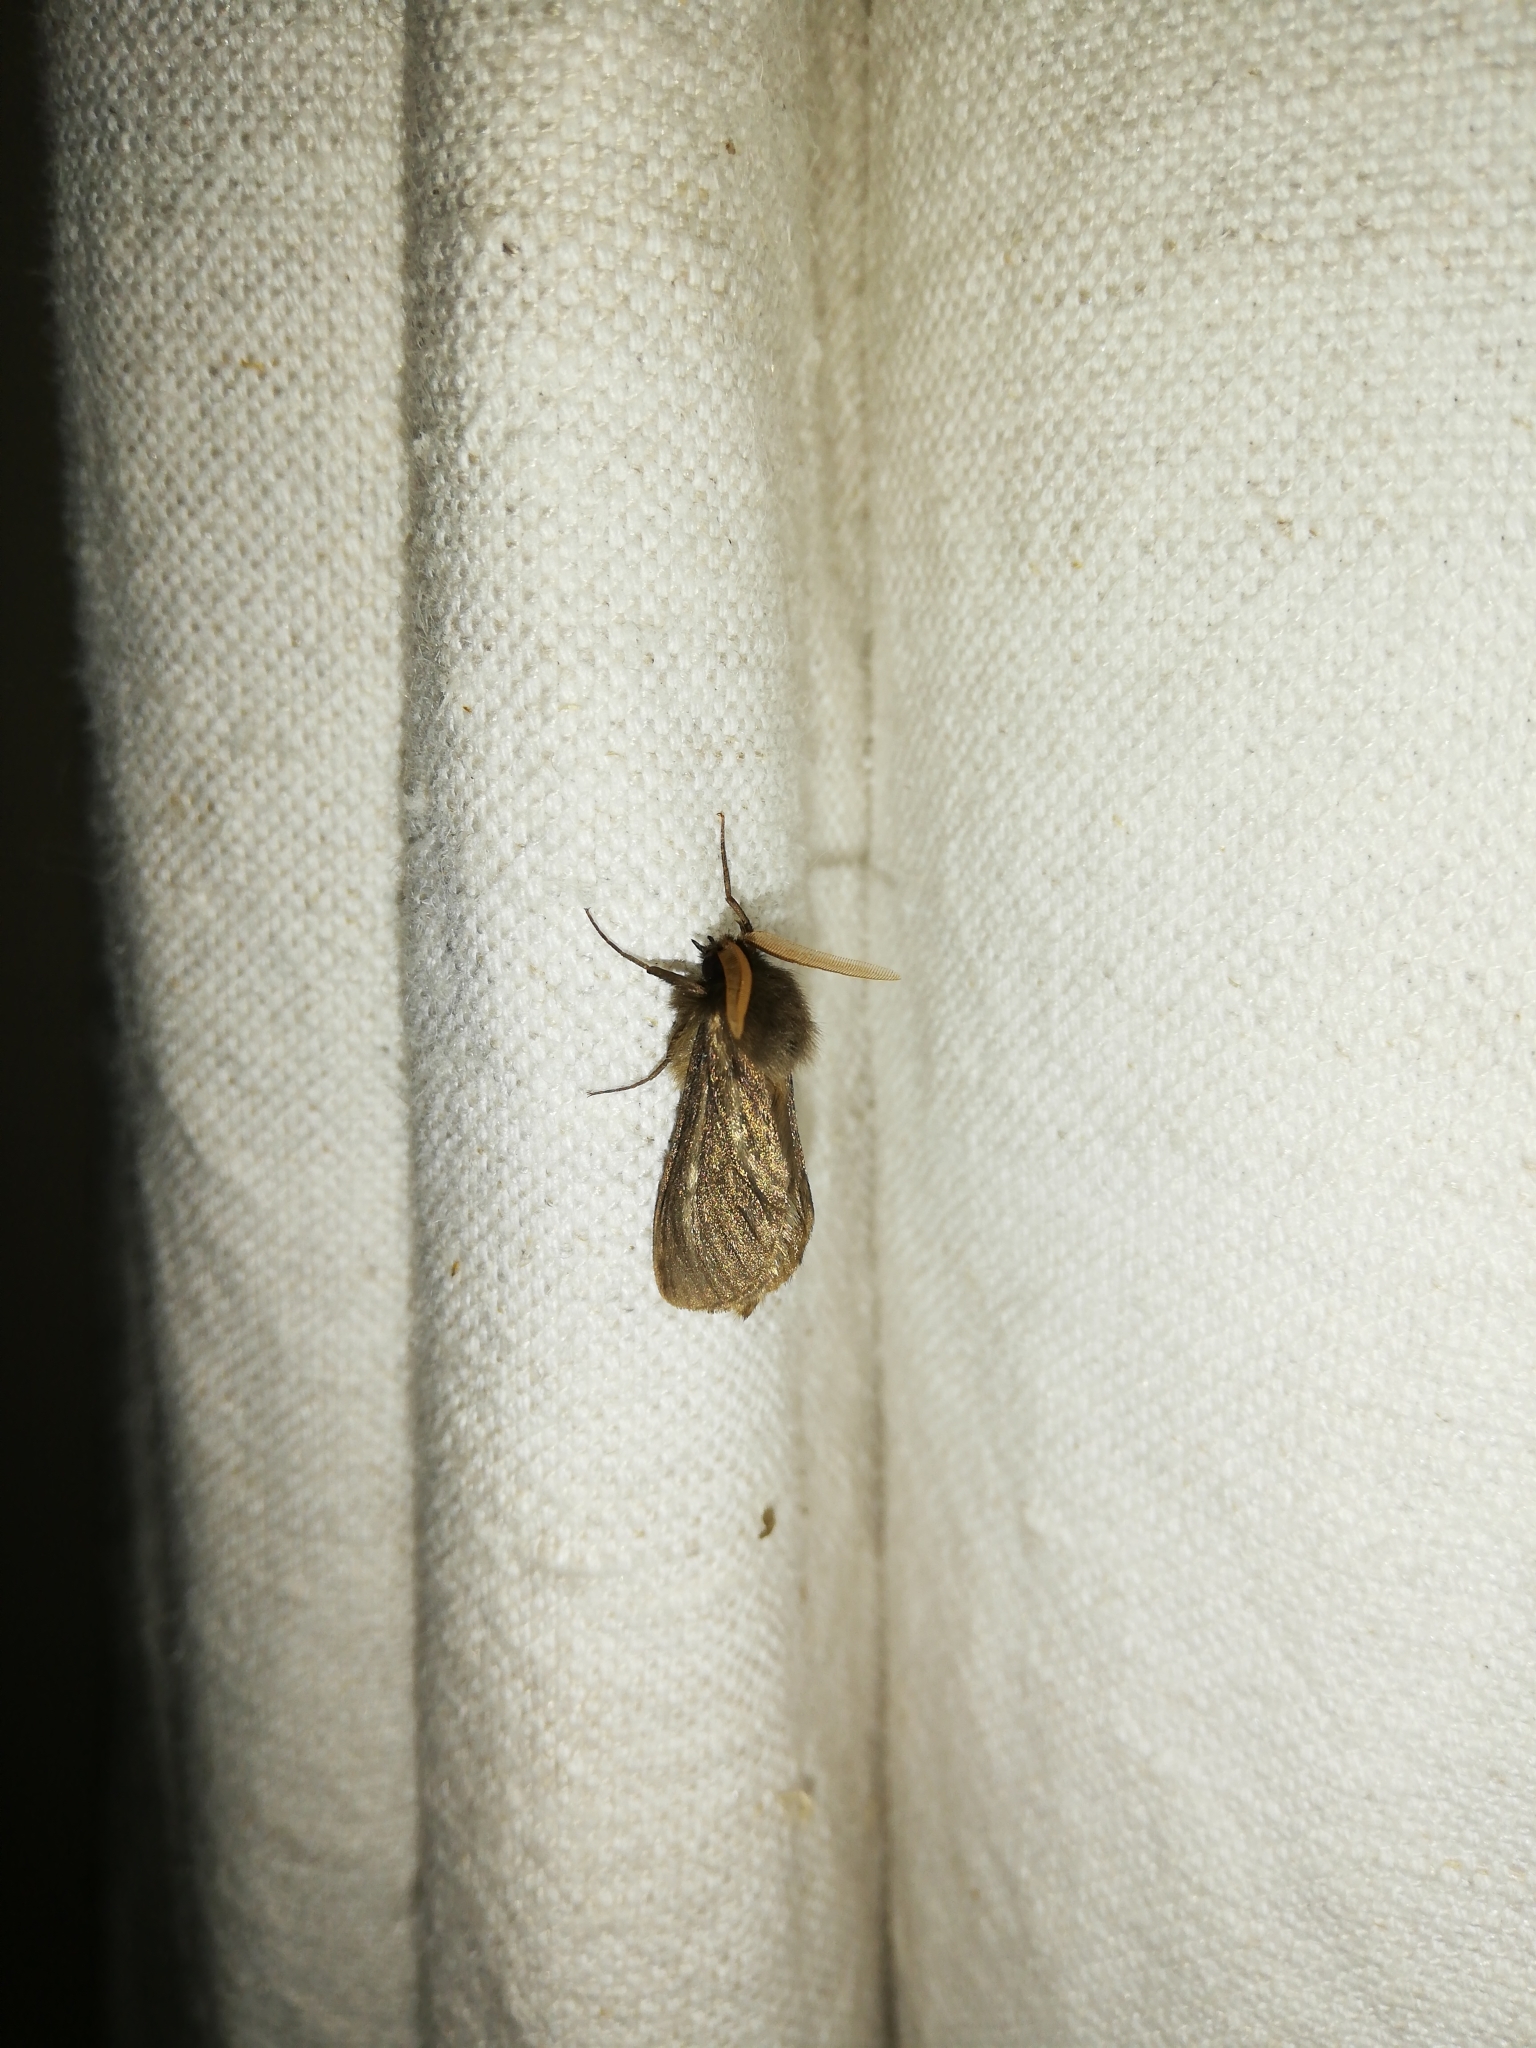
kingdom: Animalia
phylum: Arthropoda
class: Insecta
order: Lepidoptera
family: Hepialidae
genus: Gorgopis
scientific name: Gorgopis libania
